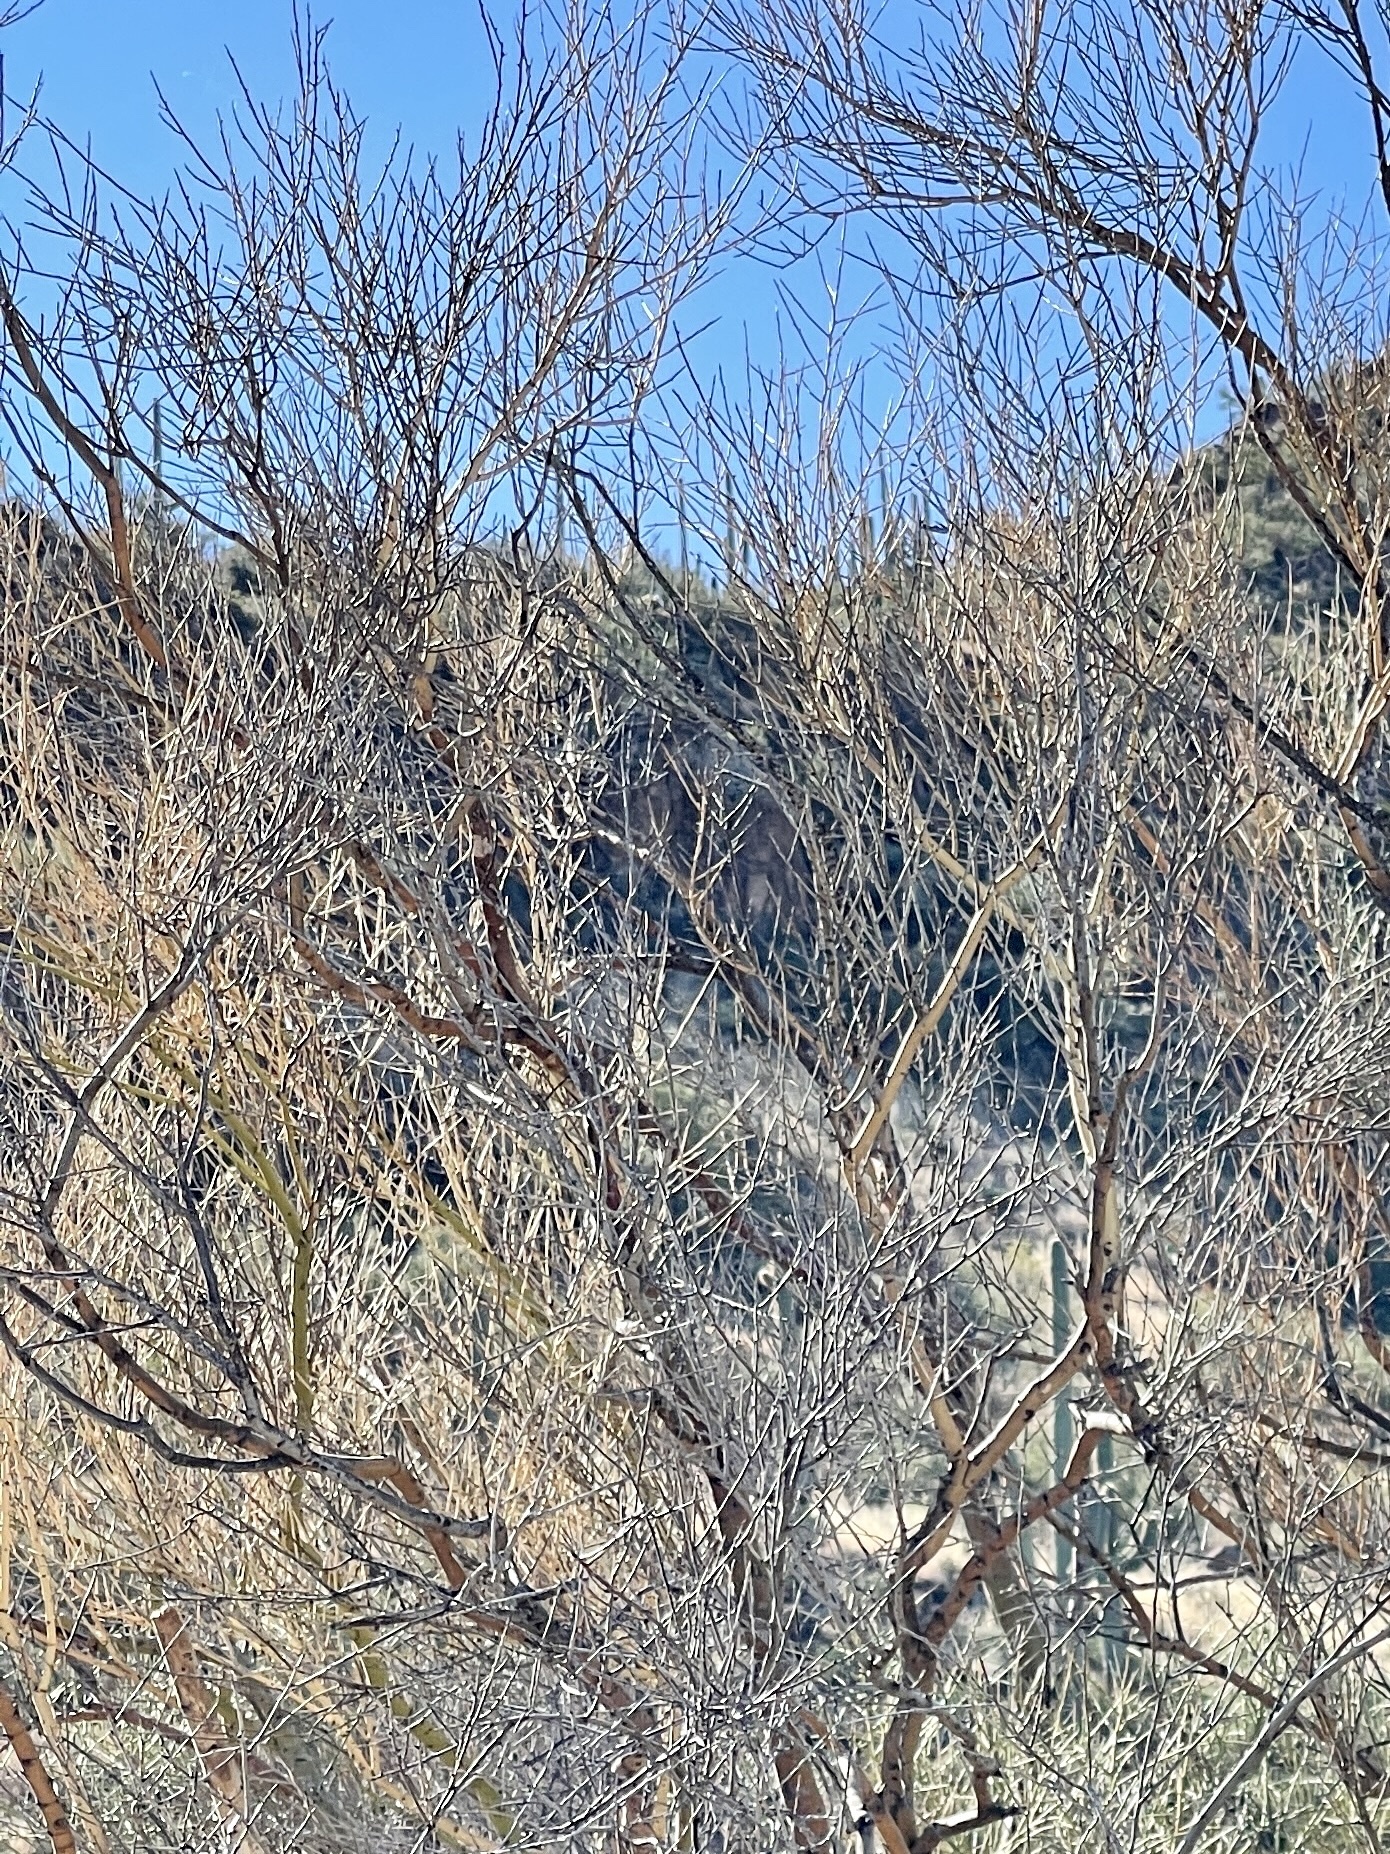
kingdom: Plantae
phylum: Tracheophyta
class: Magnoliopsida
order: Fabales
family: Fabaceae
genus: Parkinsonia
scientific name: Parkinsonia microphylla
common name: Yellow paloverde
